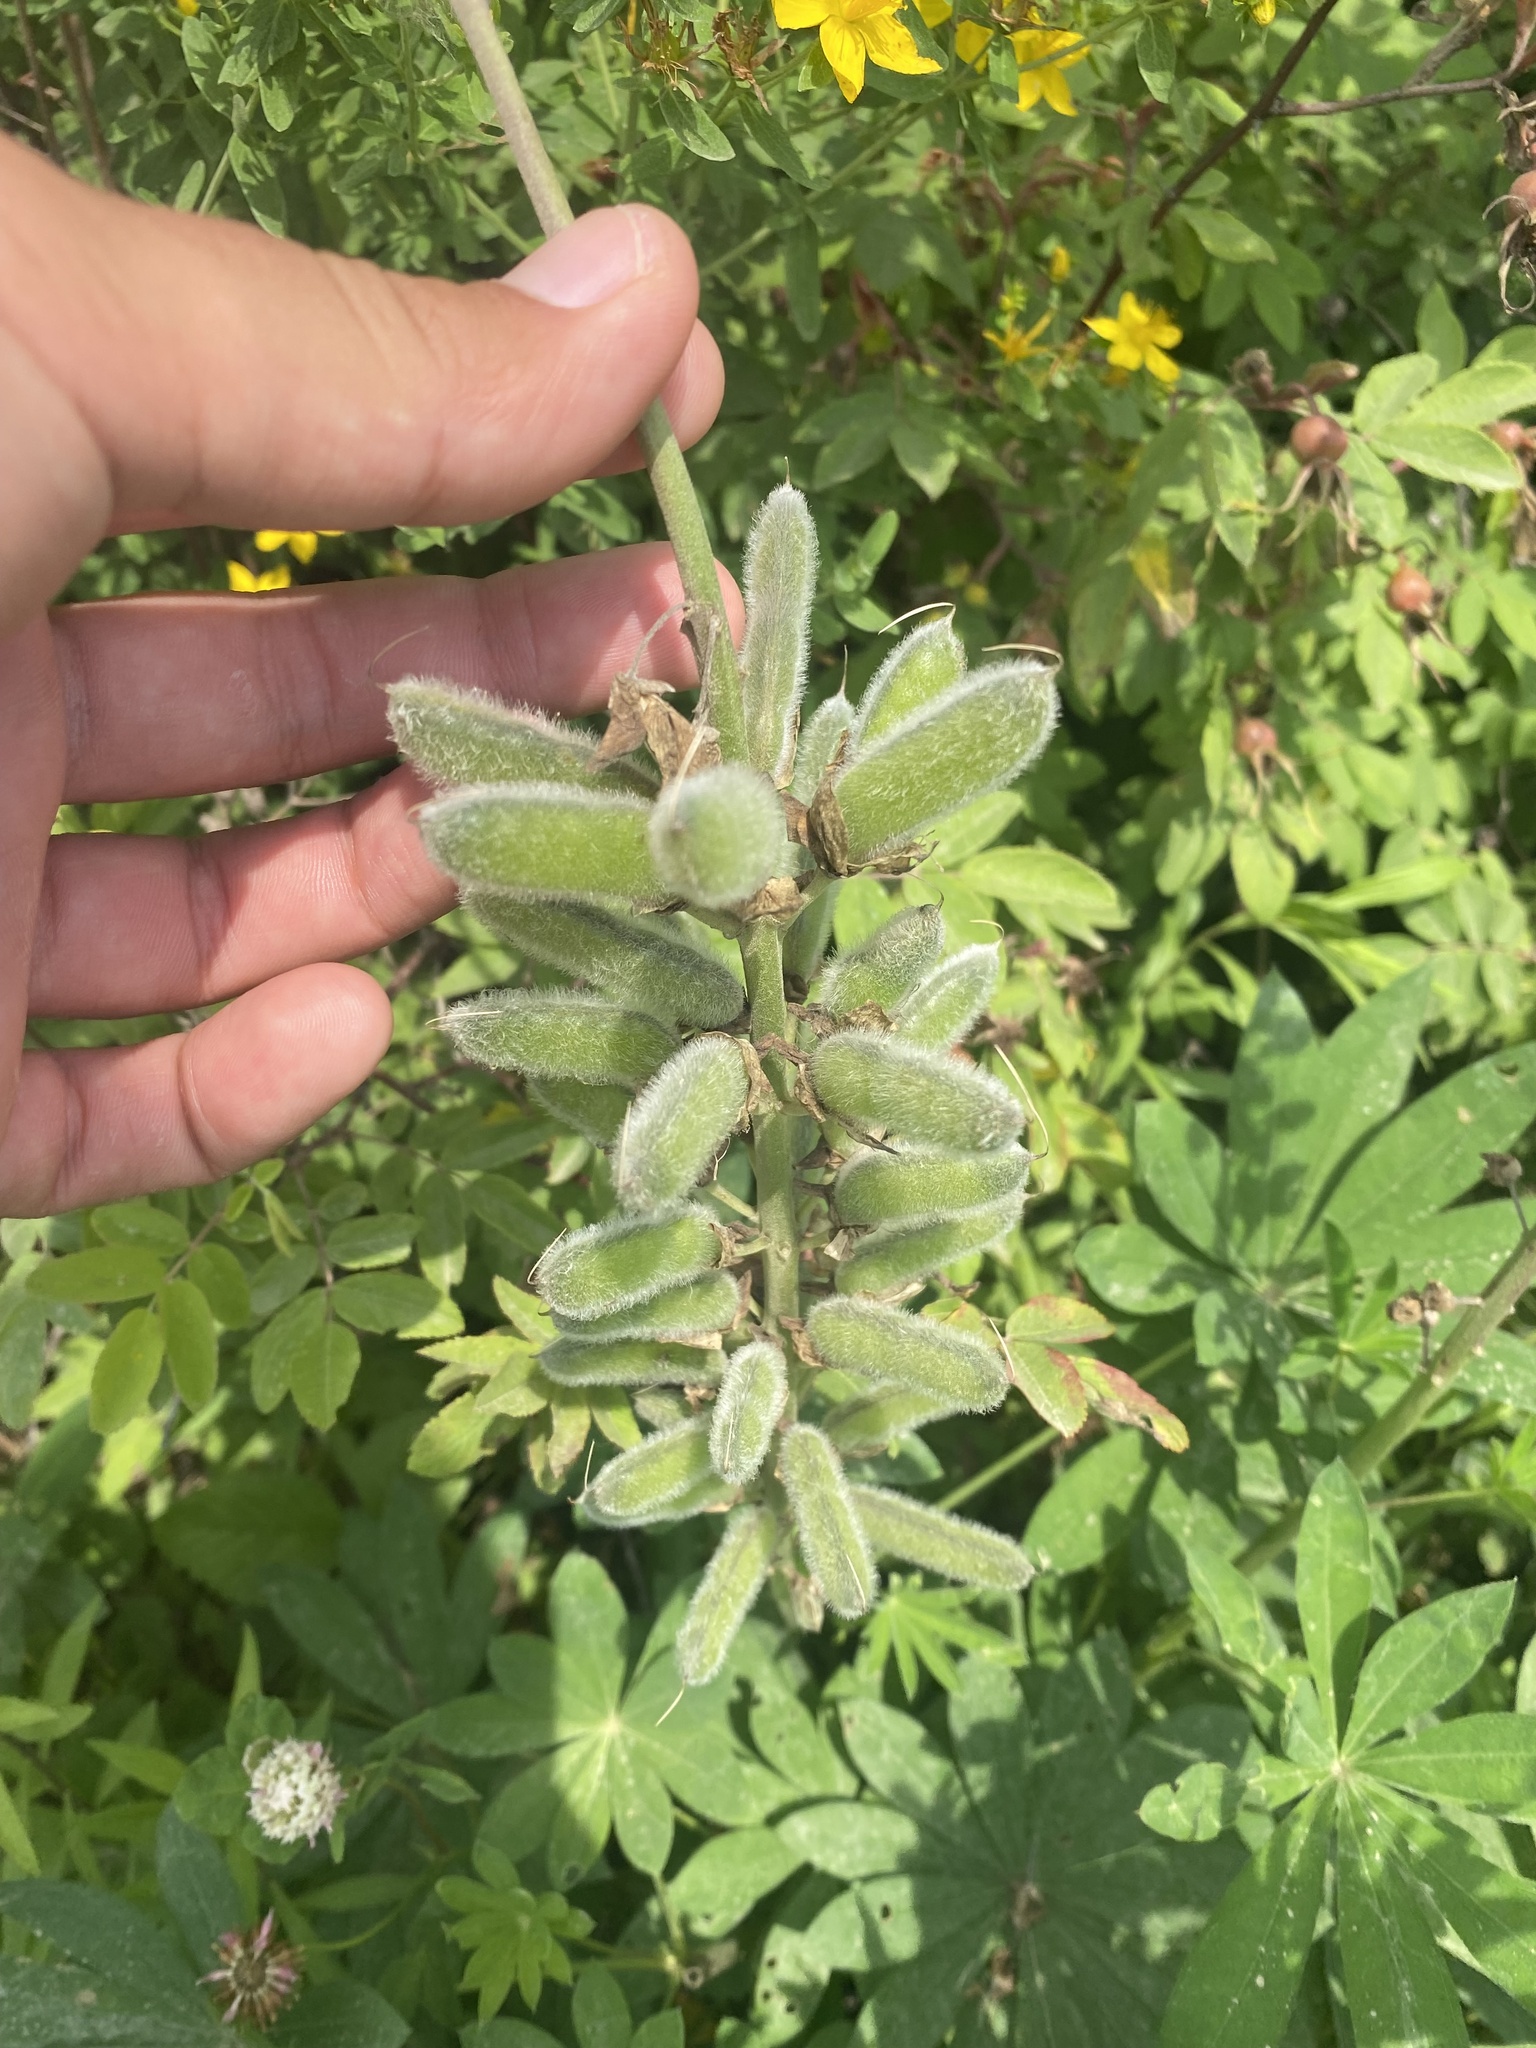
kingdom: Plantae
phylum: Tracheophyta
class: Magnoliopsida
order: Fabales
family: Fabaceae
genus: Lupinus
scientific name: Lupinus polyphyllus
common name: Garden lupin
